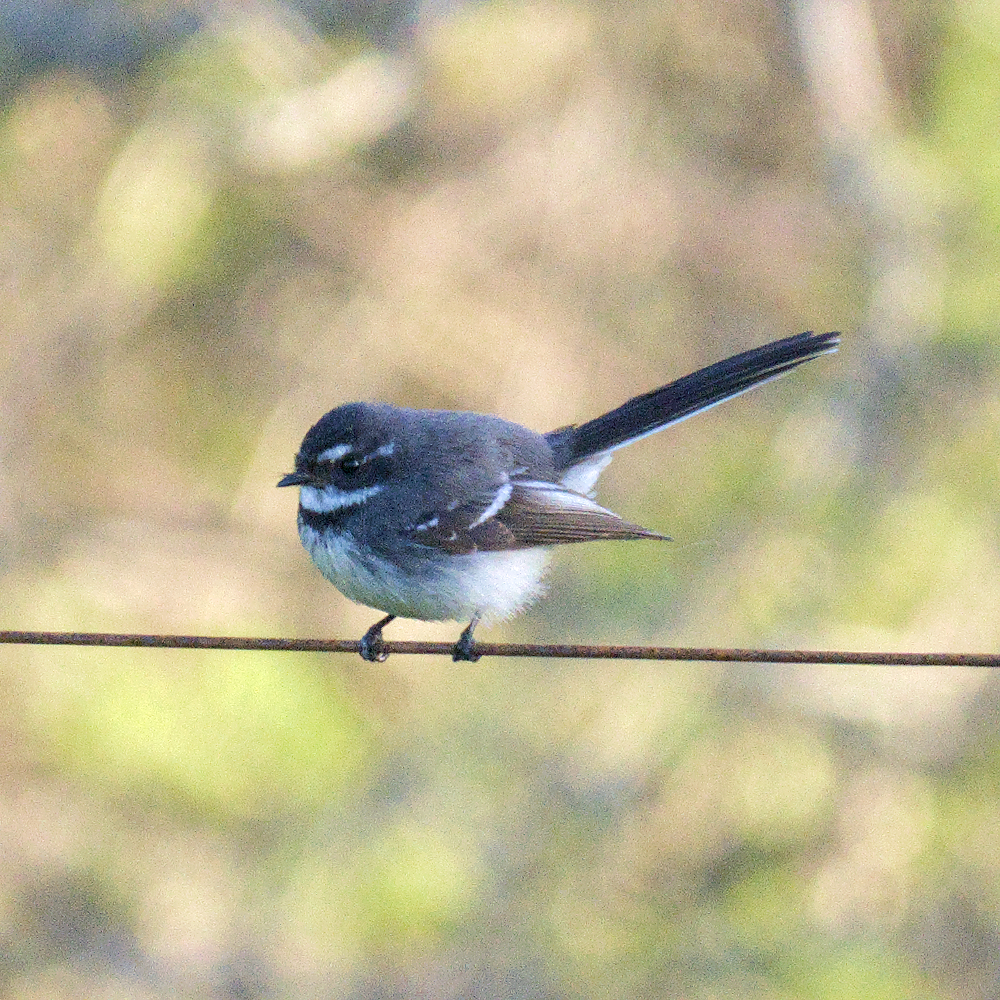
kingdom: Animalia
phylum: Chordata
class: Aves
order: Passeriformes
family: Rhipiduridae
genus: Rhipidura
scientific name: Rhipidura albiscapa
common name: Grey fantail
